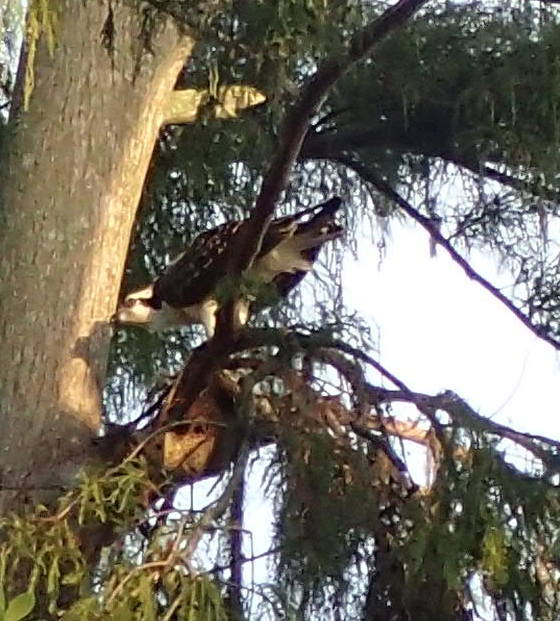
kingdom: Animalia
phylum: Chordata
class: Aves
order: Accipitriformes
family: Pandionidae
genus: Pandion
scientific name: Pandion haliaetus
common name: Osprey
